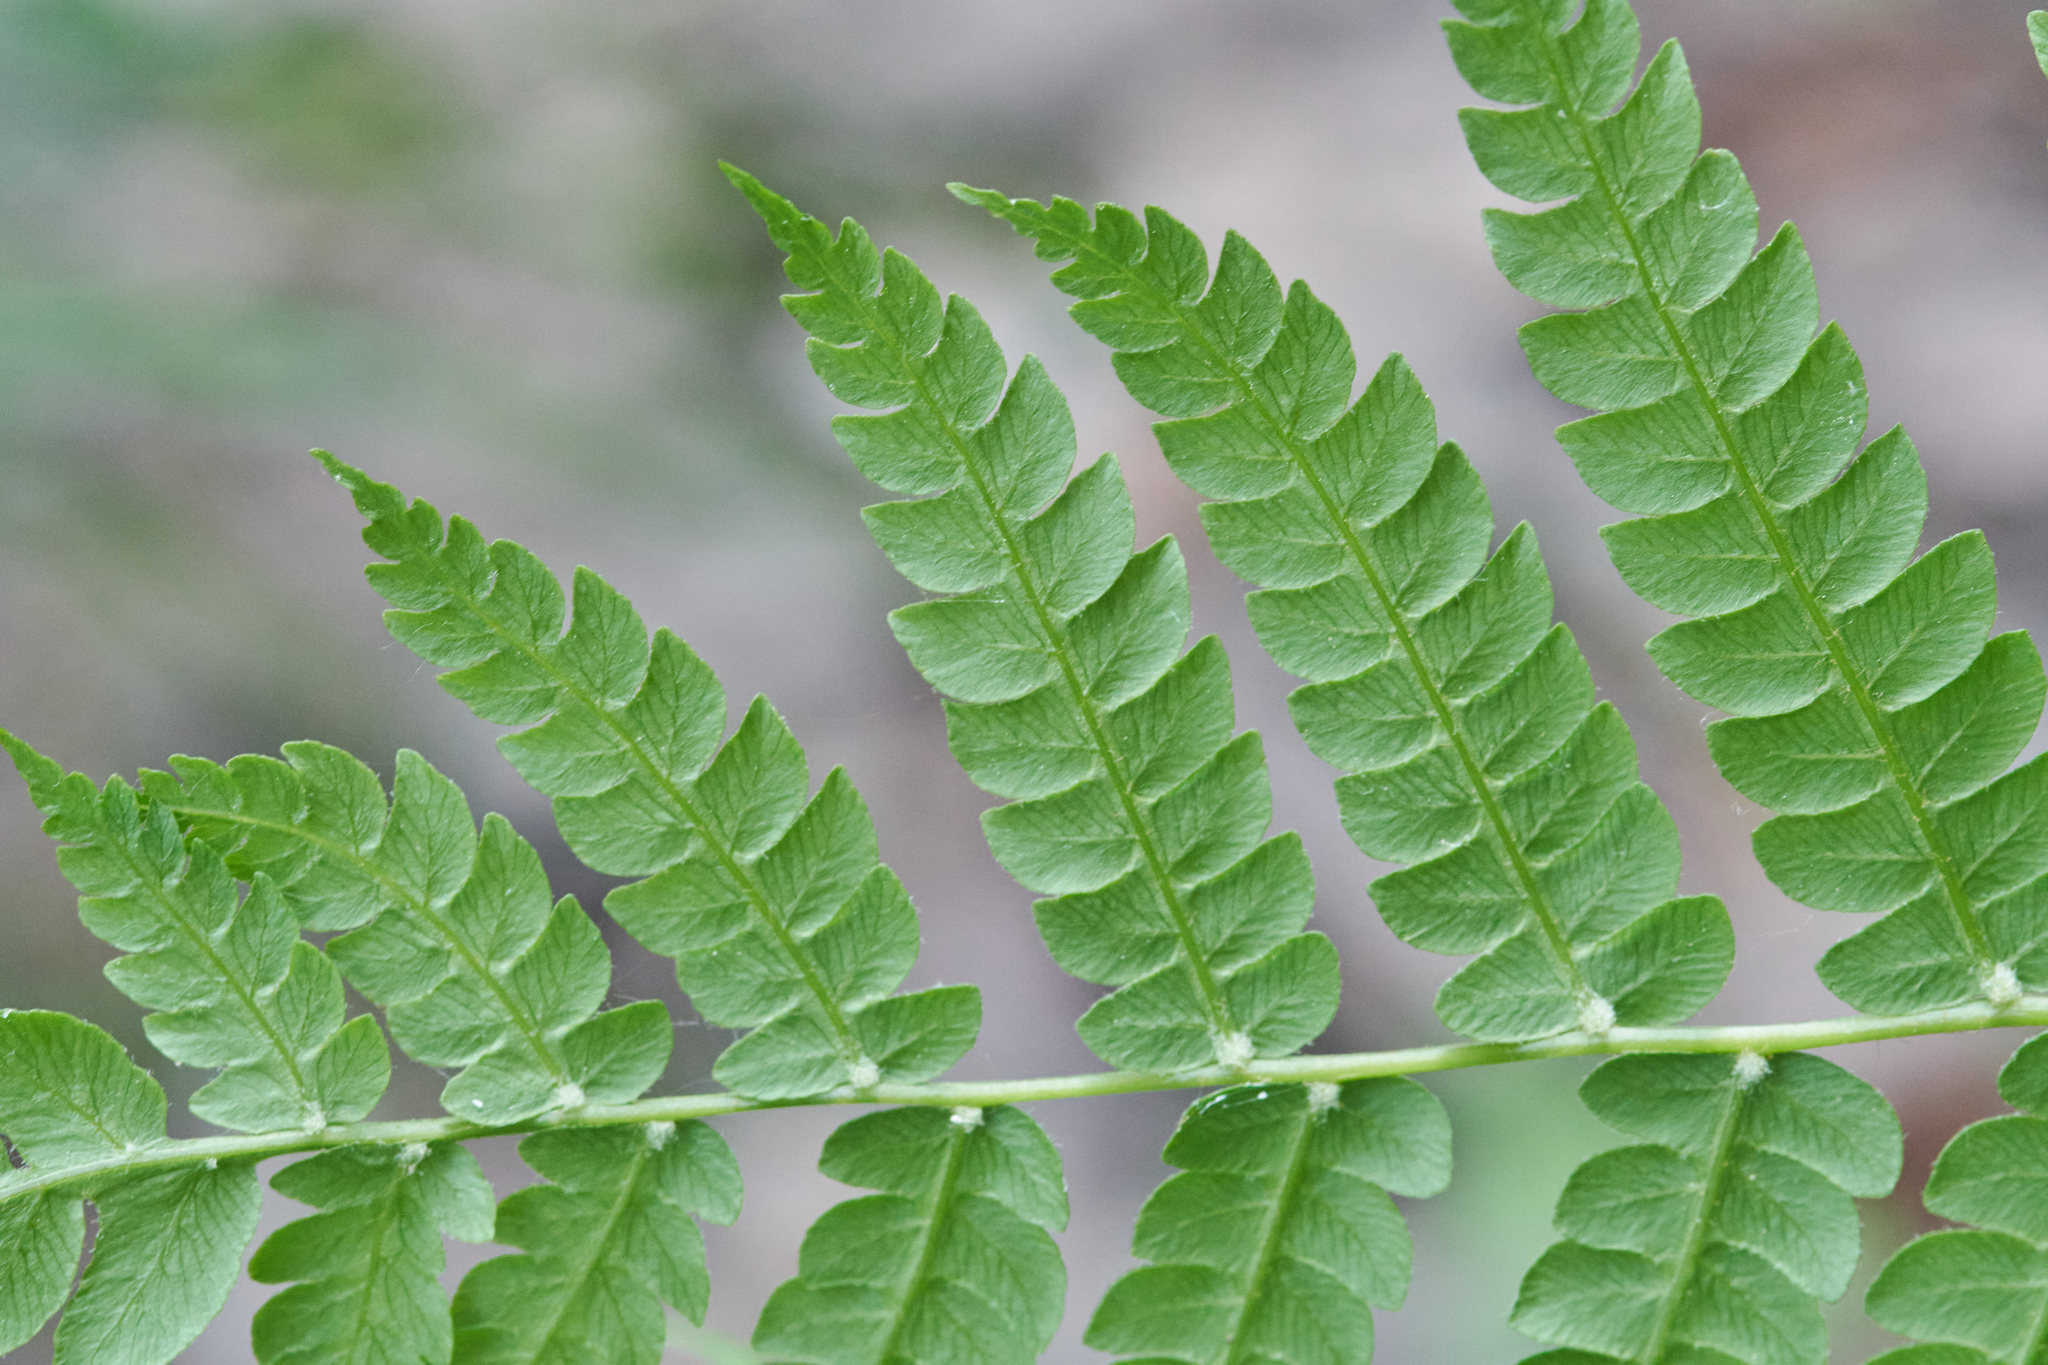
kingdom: Plantae
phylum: Tracheophyta
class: Polypodiopsida
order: Osmundales
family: Osmundaceae
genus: Osmundastrum
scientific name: Osmundastrum cinnamomeum
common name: Cinnamon fern
